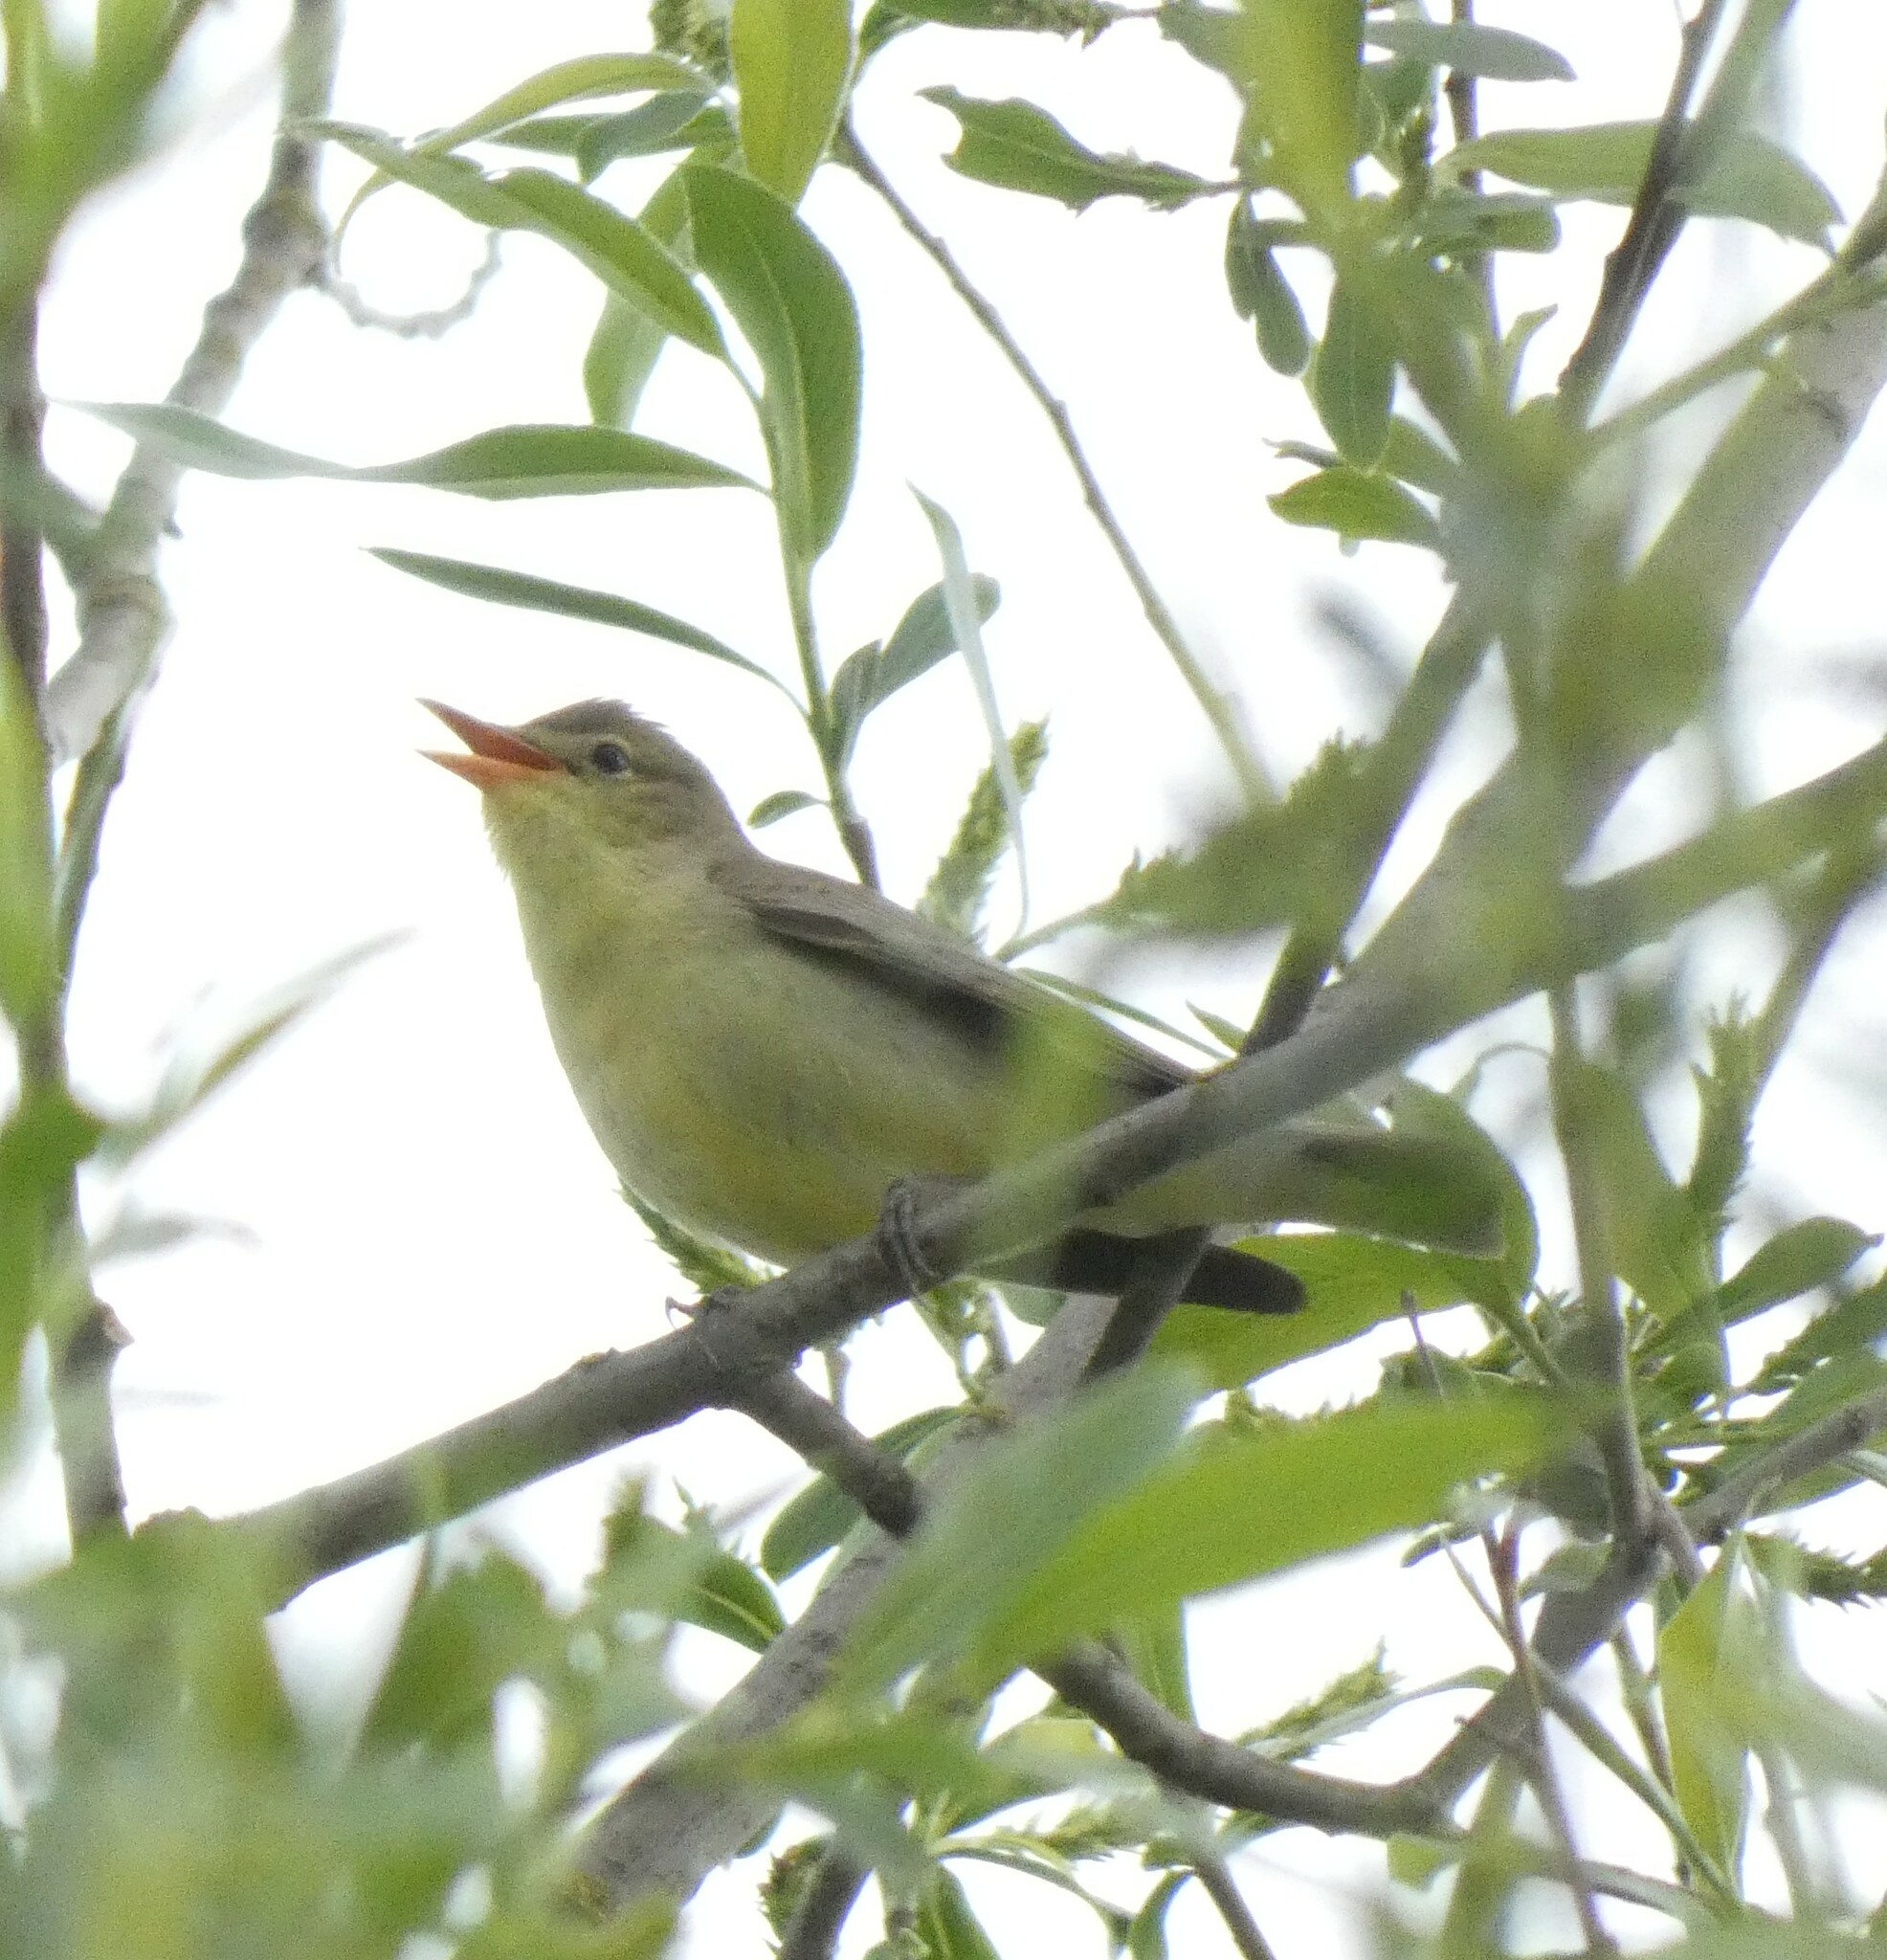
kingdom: Animalia
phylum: Chordata
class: Aves
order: Passeriformes
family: Acrocephalidae
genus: Hippolais
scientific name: Hippolais icterina
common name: Icterine warbler
